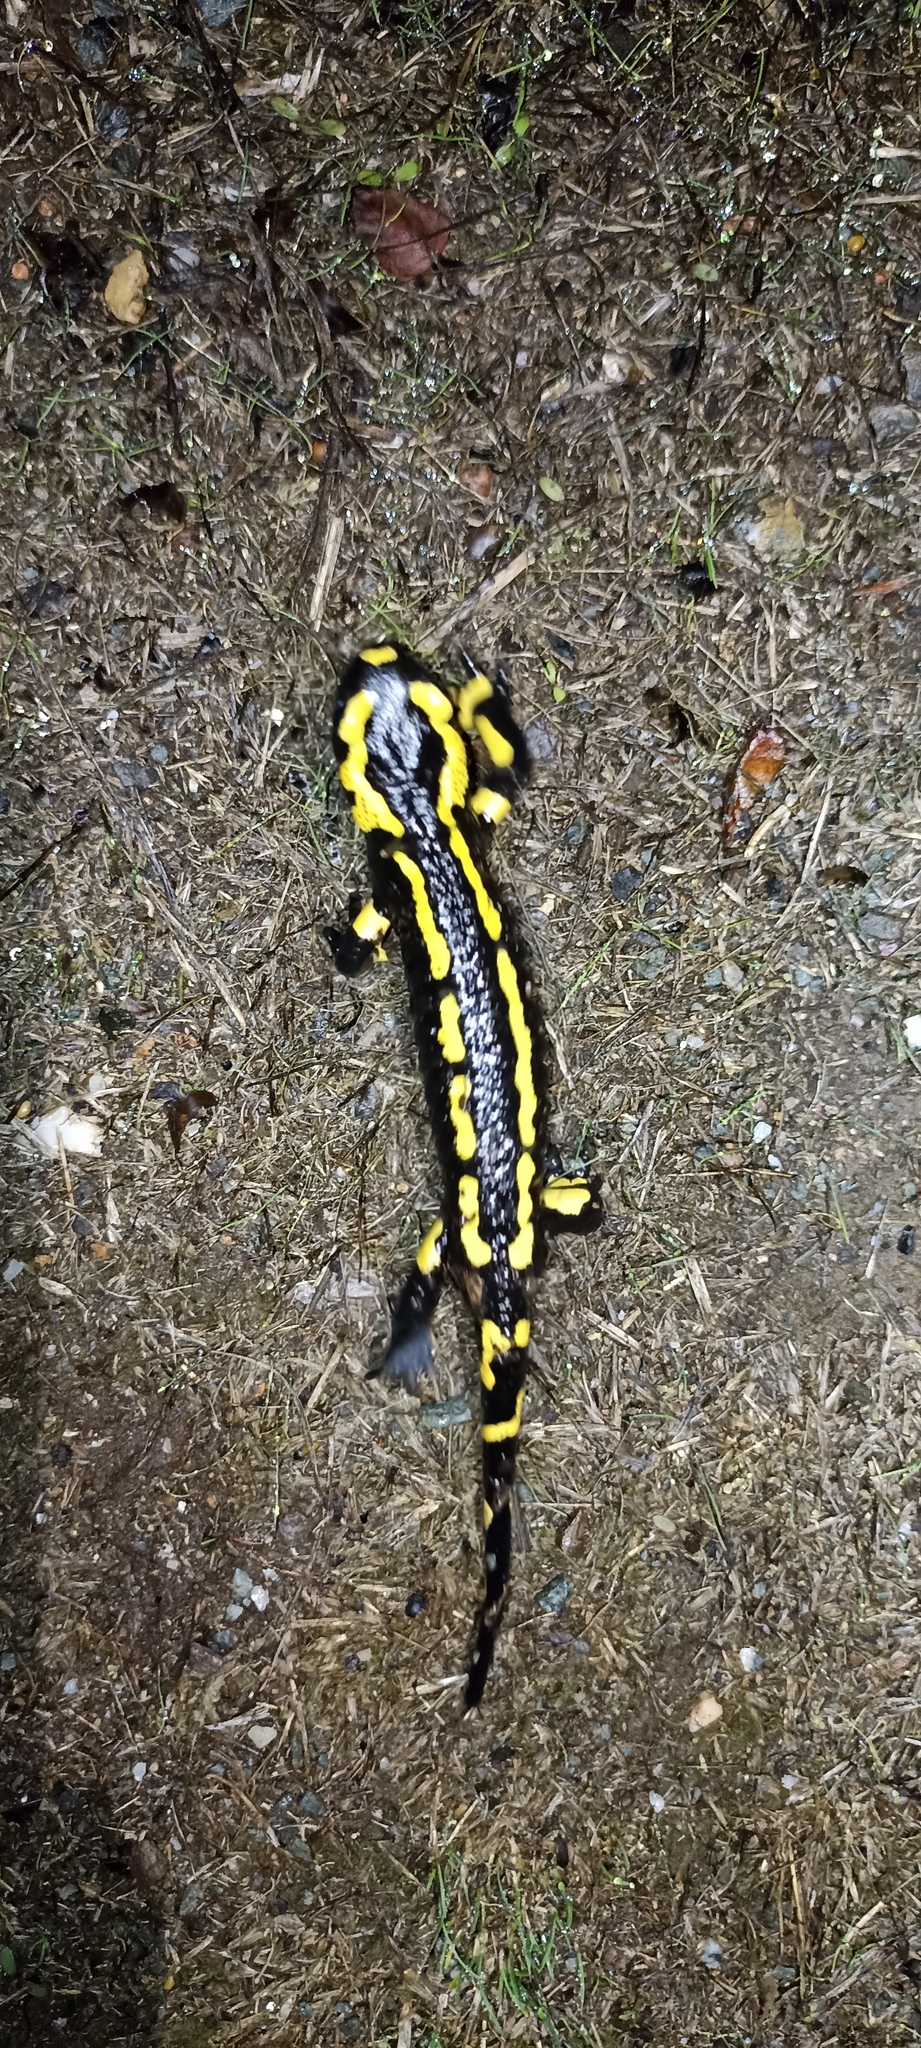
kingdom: Animalia
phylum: Chordata
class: Amphibia
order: Caudata
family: Salamandridae
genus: Salamandra
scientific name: Salamandra salamandra
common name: Fire salamander
